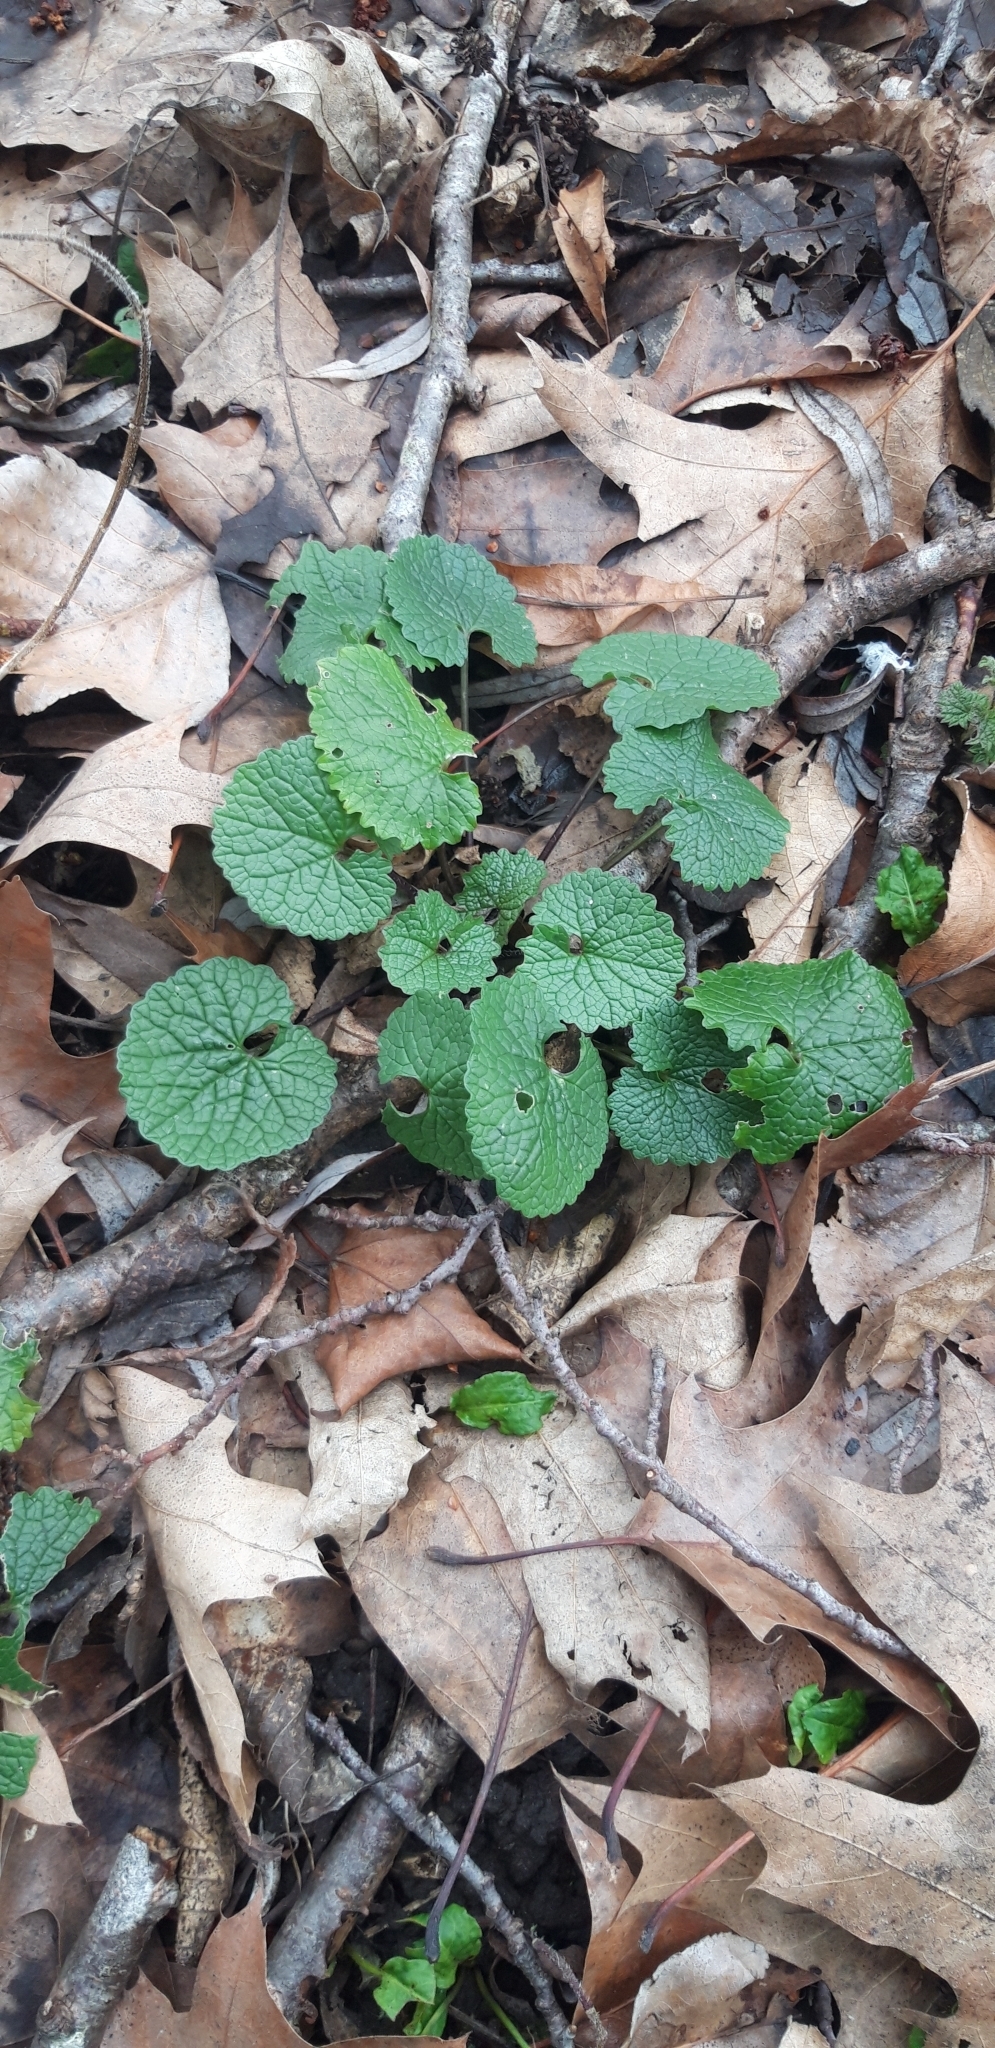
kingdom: Plantae
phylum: Tracheophyta
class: Magnoliopsida
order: Brassicales
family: Brassicaceae
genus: Alliaria
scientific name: Alliaria petiolata
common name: Garlic mustard
